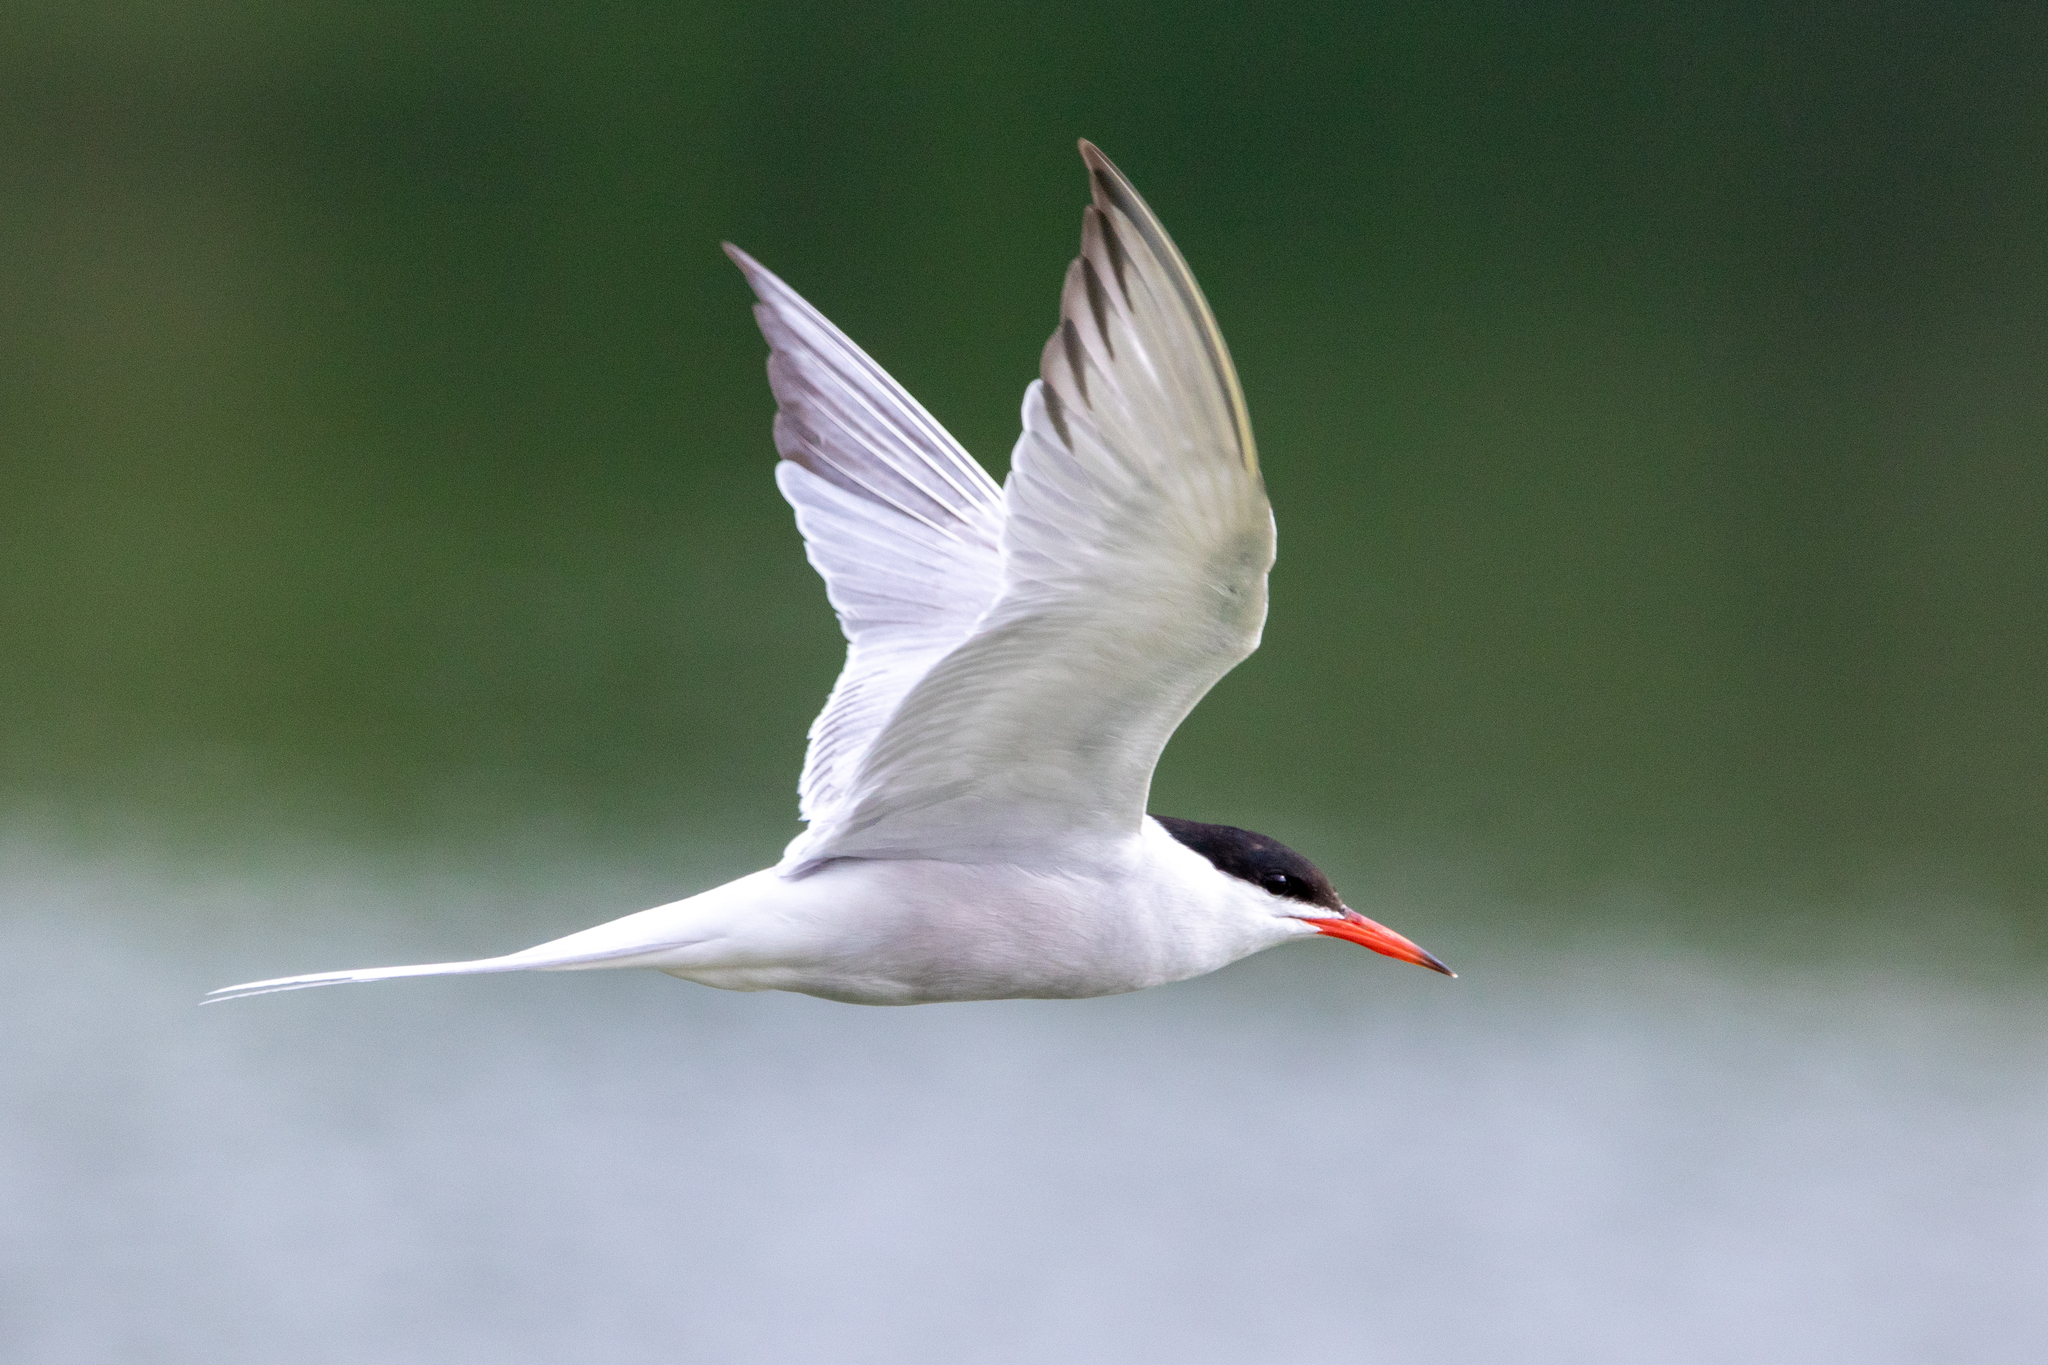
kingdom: Animalia
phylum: Chordata
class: Aves
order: Charadriiformes
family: Laridae
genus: Sterna
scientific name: Sterna hirundo
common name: Common tern
